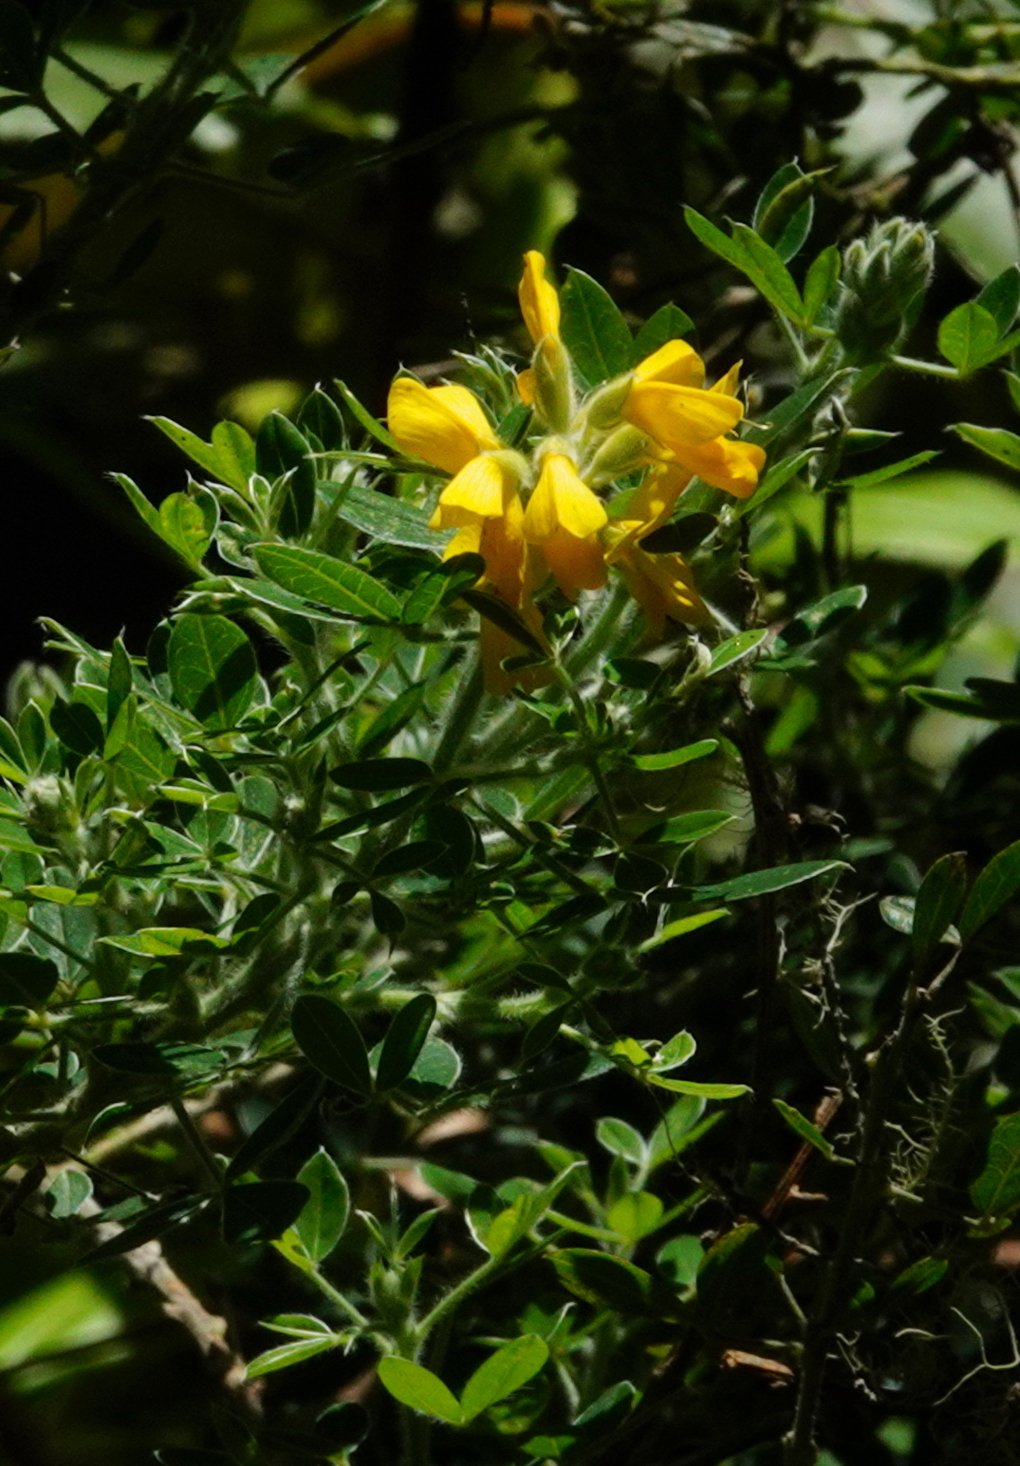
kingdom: Plantae
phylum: Tracheophyta
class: Magnoliopsida
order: Fabales
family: Fabaceae
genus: Genista
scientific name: Genista maderensis
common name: Madeira dyer's greenweed
